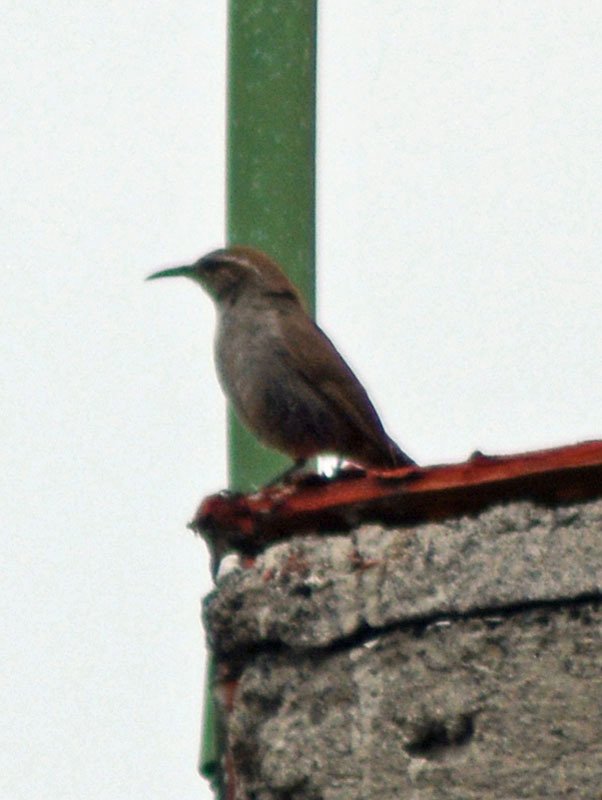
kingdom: Animalia
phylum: Chordata
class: Aves
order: Passeriformes
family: Troglodytidae
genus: Thryomanes
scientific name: Thryomanes bewickii
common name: Bewick's wren
